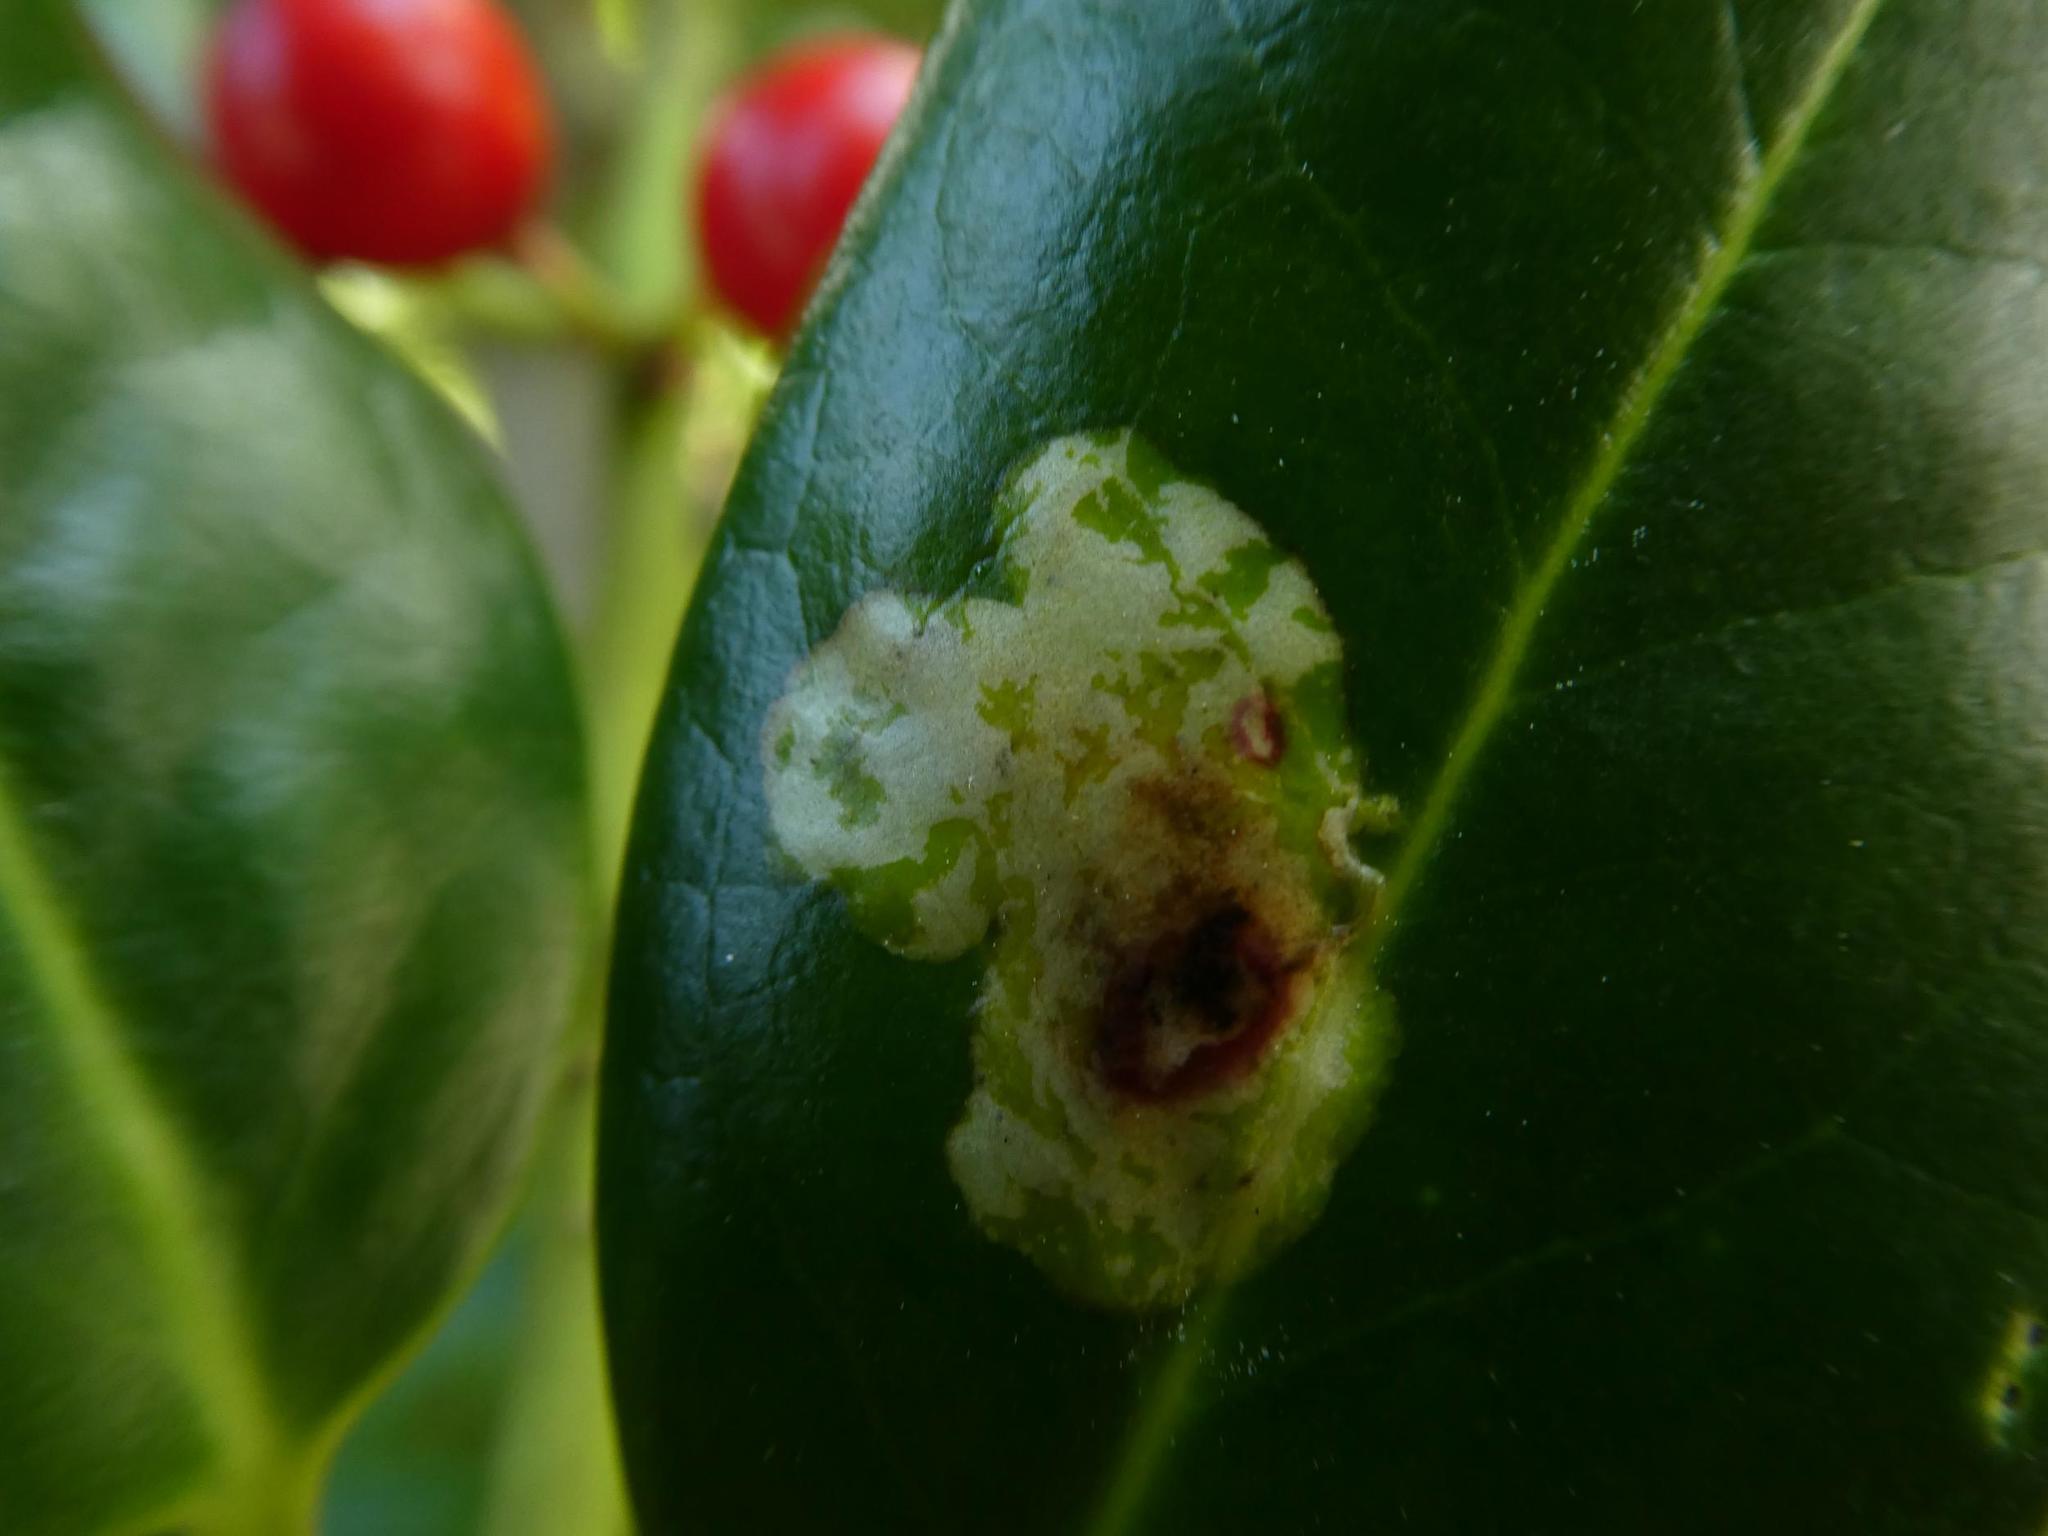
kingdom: Animalia
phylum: Arthropoda
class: Insecta
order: Diptera
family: Agromyzidae
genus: Phytomyza
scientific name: Phytomyza ilicis
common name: Holly leafminer
